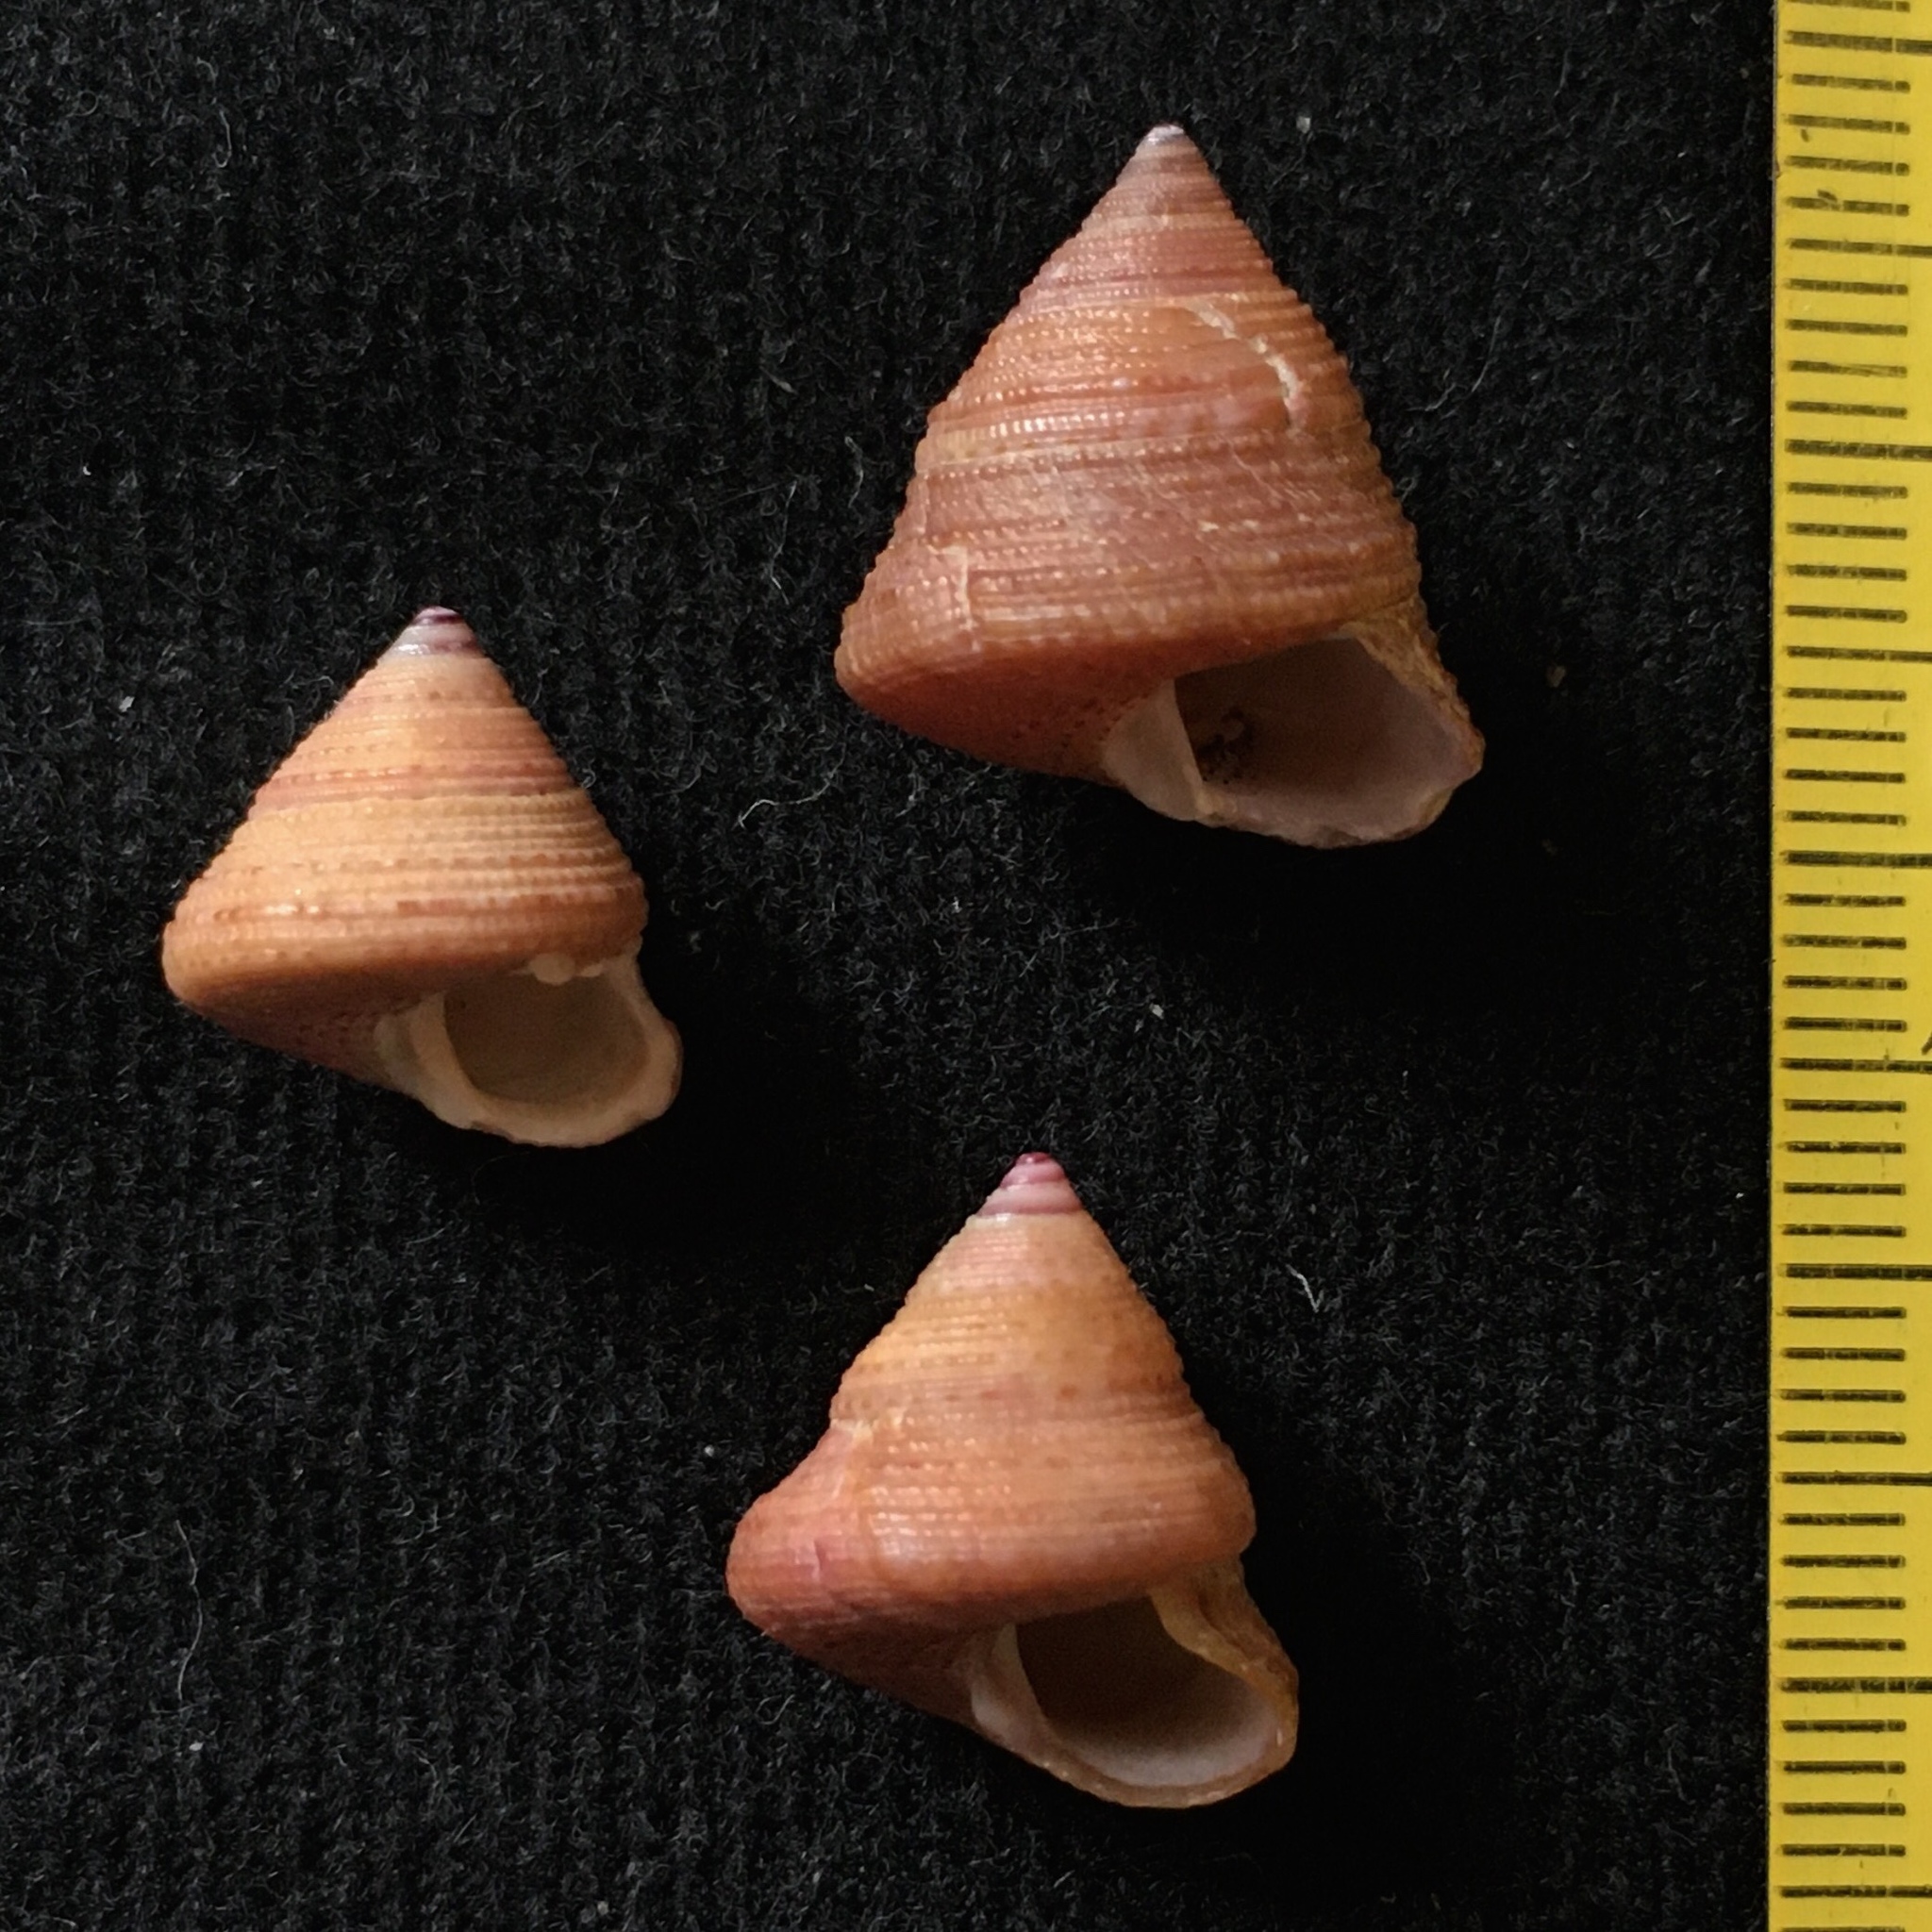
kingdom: Animalia
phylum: Mollusca
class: Gastropoda
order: Trochida
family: Calliostomatidae
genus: Calliostoma
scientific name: Calliostoma jucundum
